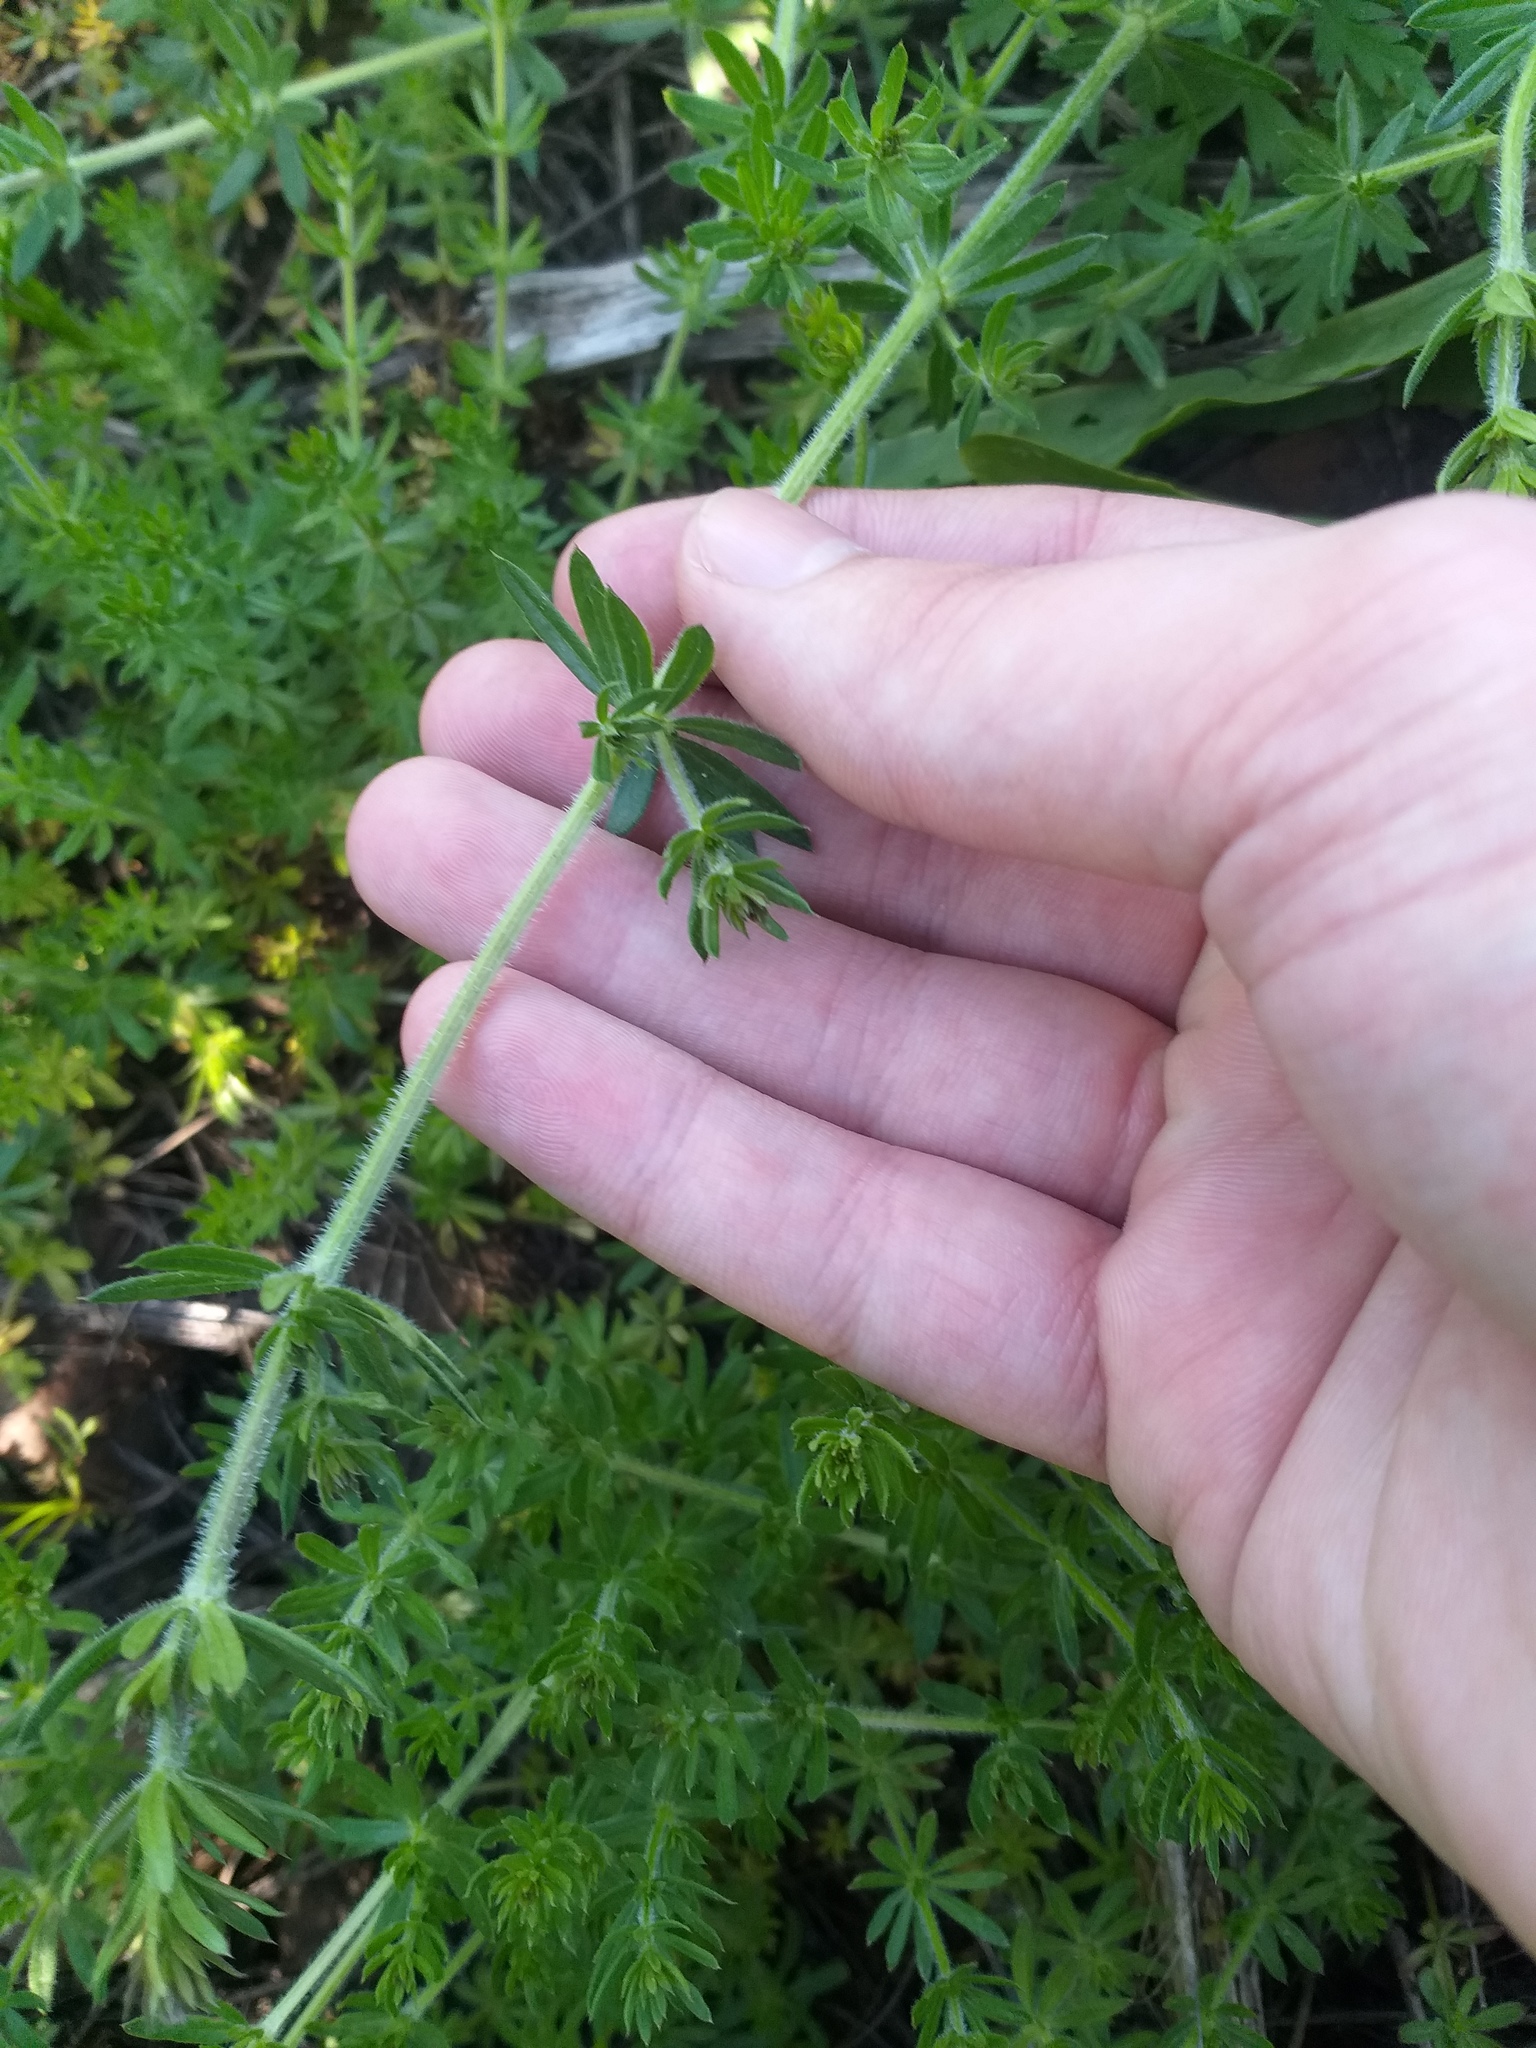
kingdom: Plantae
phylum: Tracheophyta
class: Magnoliopsida
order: Gentianales
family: Rubiaceae
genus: Galium
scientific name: Galium humifusum
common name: Spreading bedstraw
